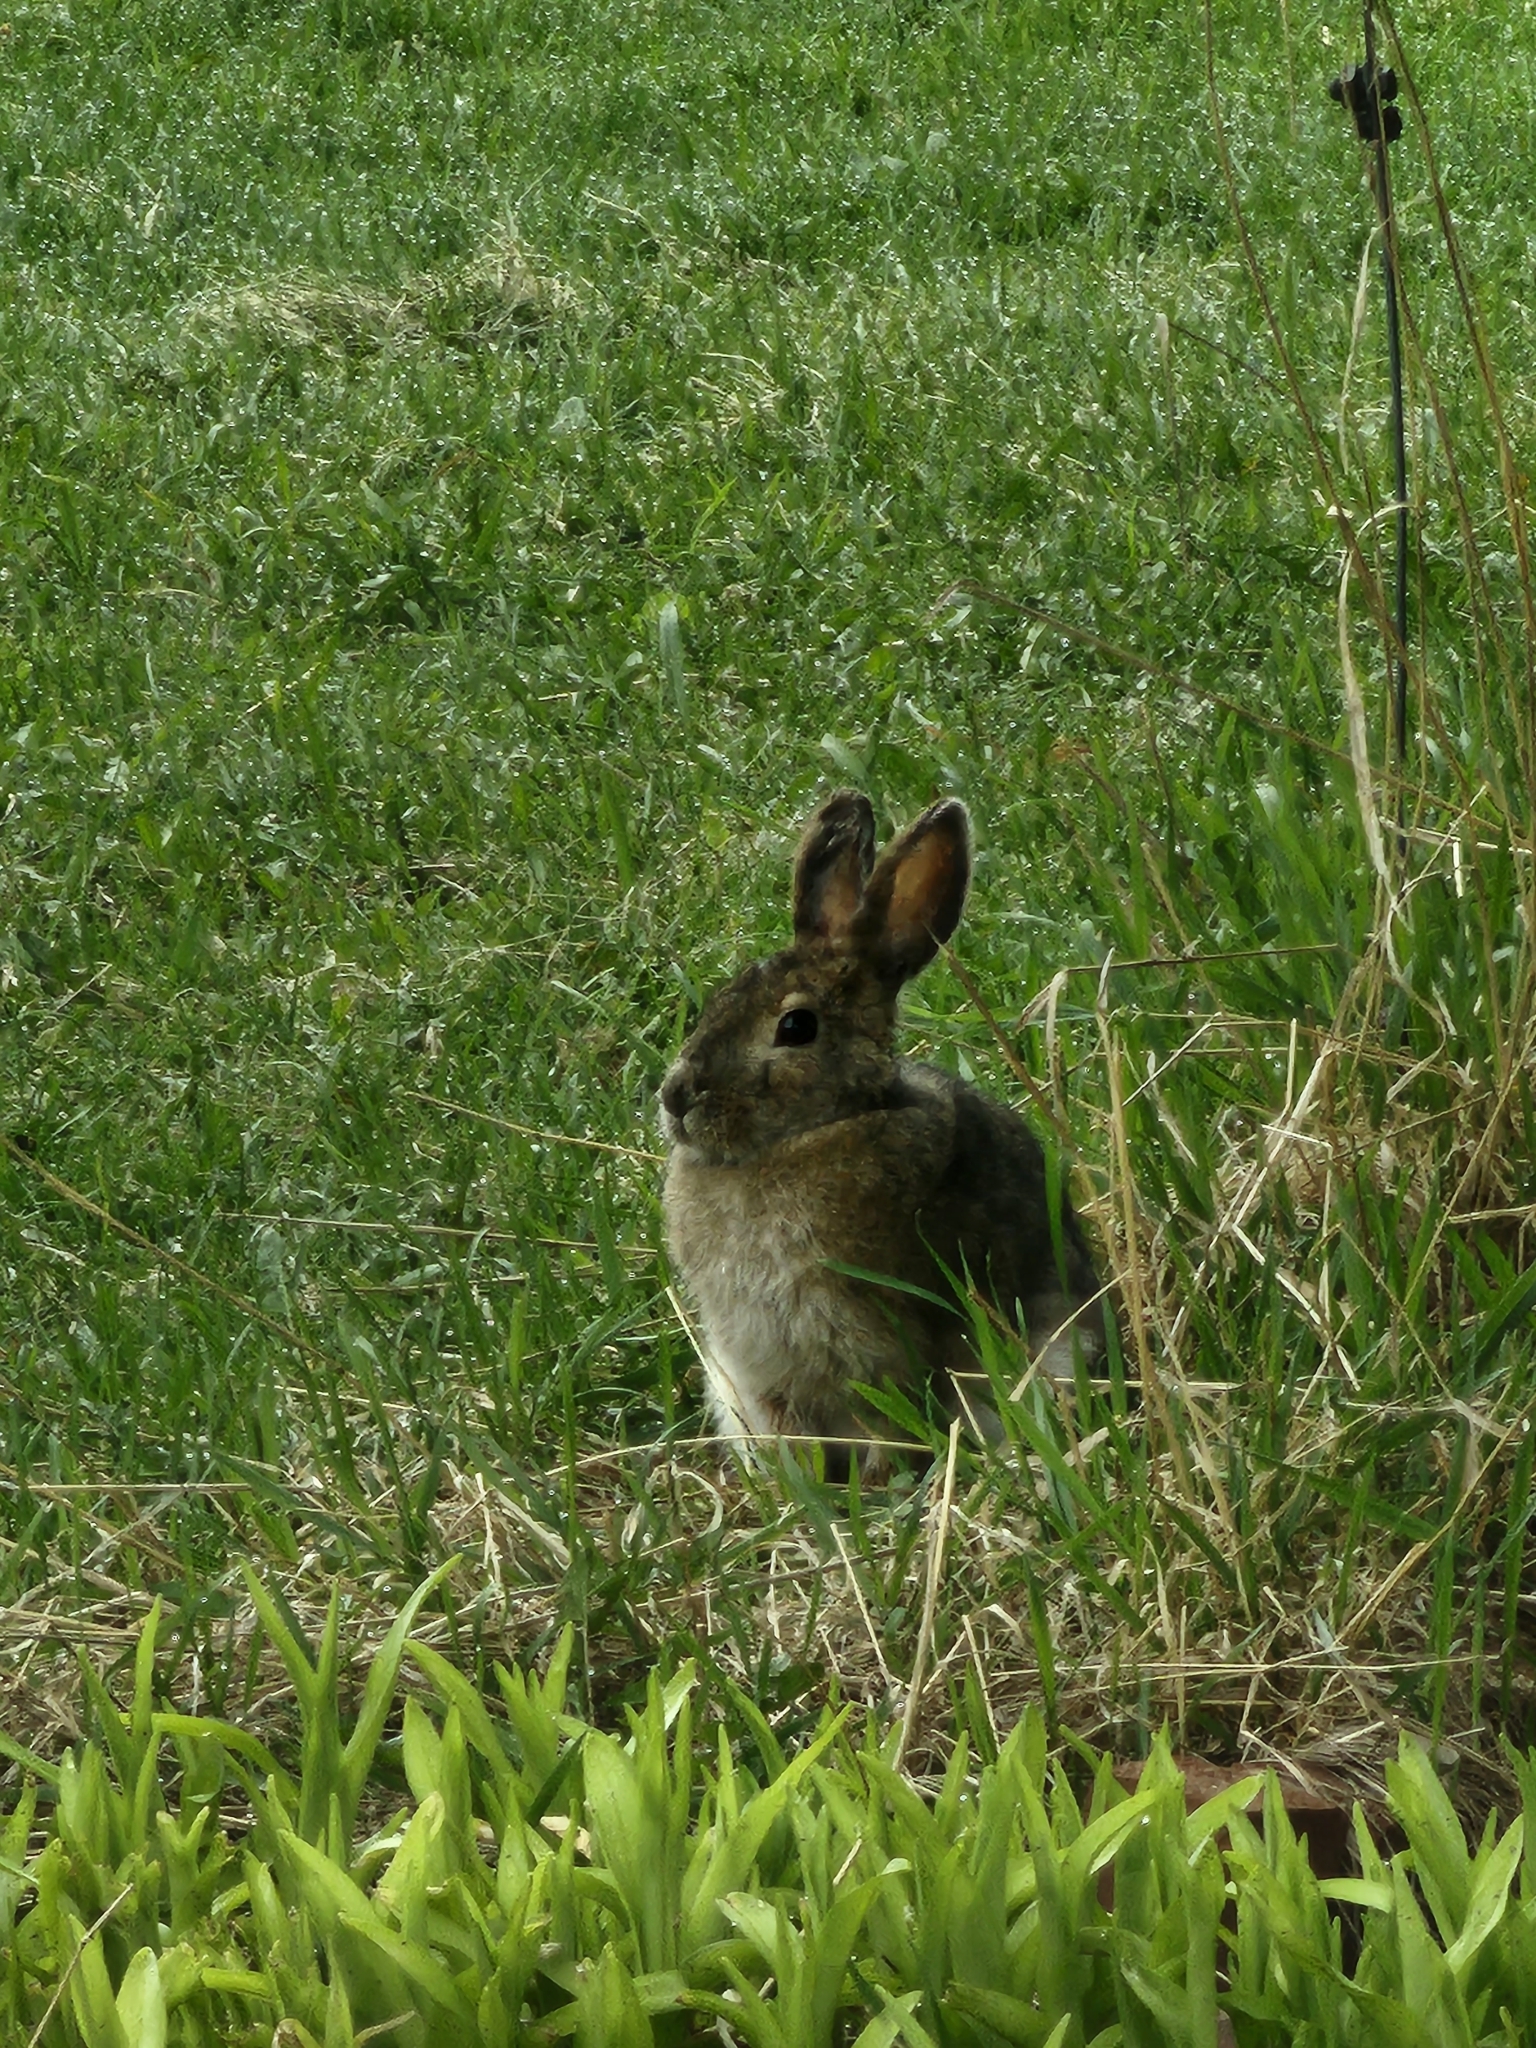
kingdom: Animalia
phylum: Chordata
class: Mammalia
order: Lagomorpha
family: Leporidae
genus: Lepus
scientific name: Lepus americanus
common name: Snowshoe hare
